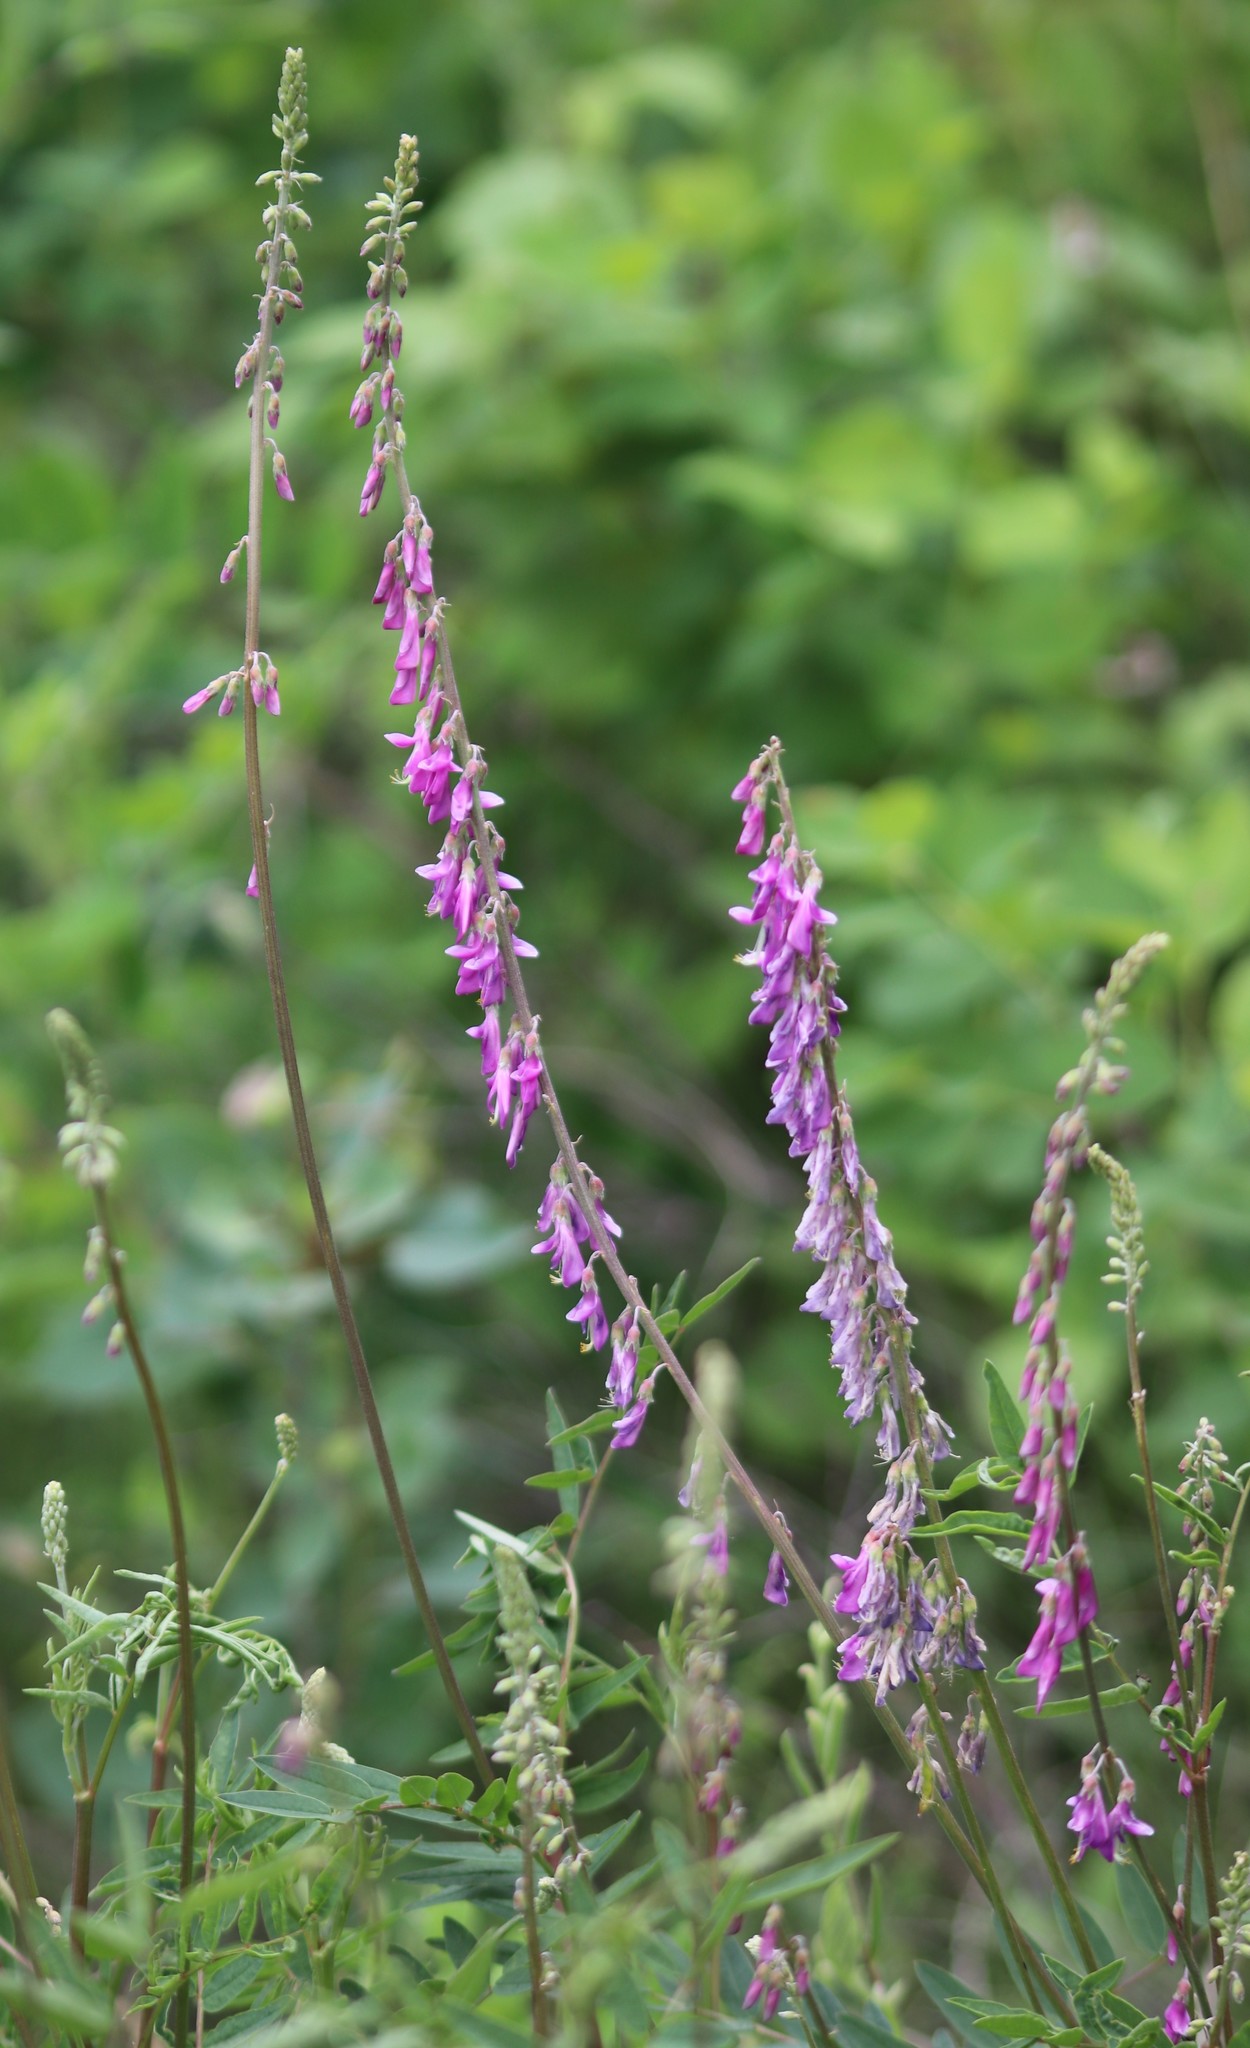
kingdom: Plantae
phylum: Tracheophyta
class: Magnoliopsida
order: Fabales
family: Fabaceae
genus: Hedysarum
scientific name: Hedysarum alpinum
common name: Alpine sweet-vetch
